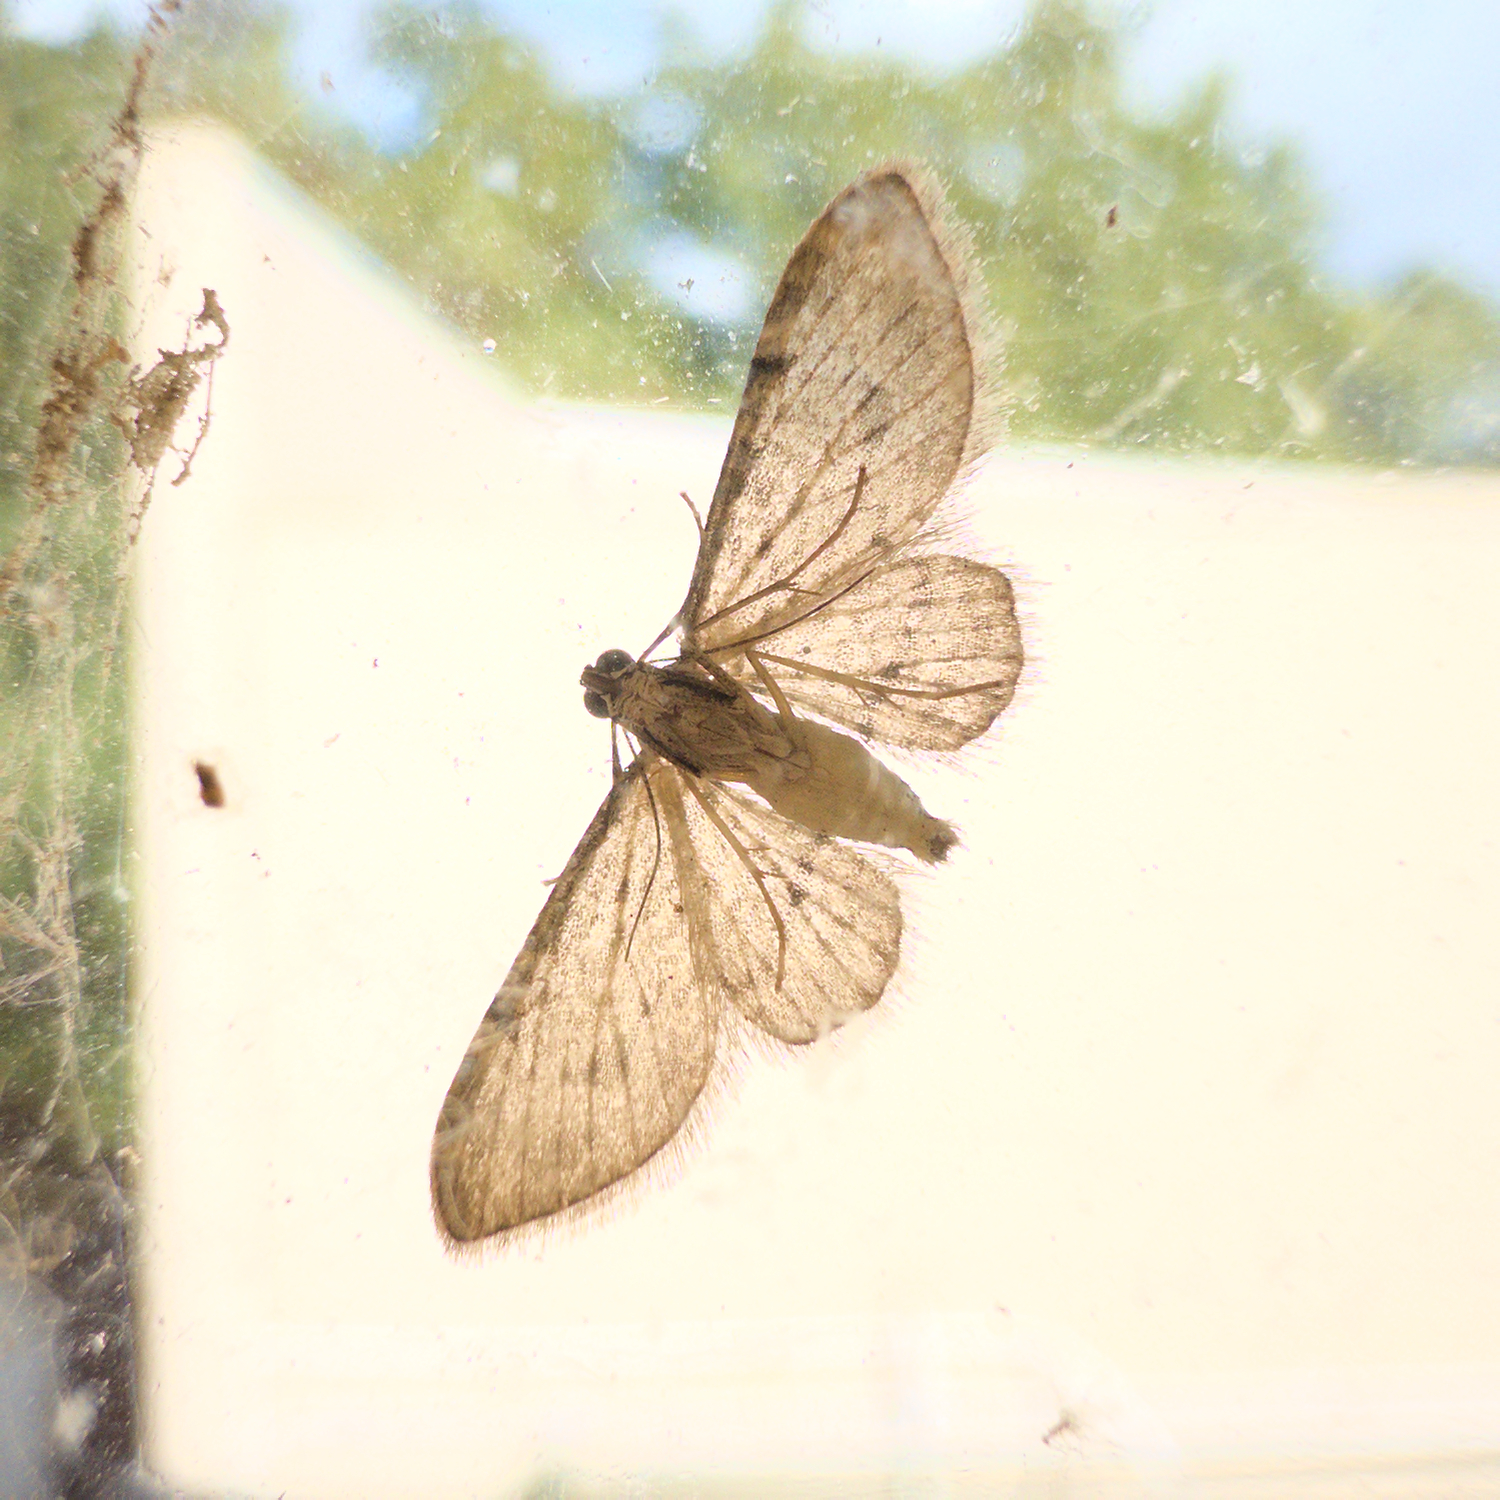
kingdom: Animalia
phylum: Arthropoda
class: Insecta
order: Lepidoptera
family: Geometridae
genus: Chloroclystis
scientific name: Chloroclystis insigillata
